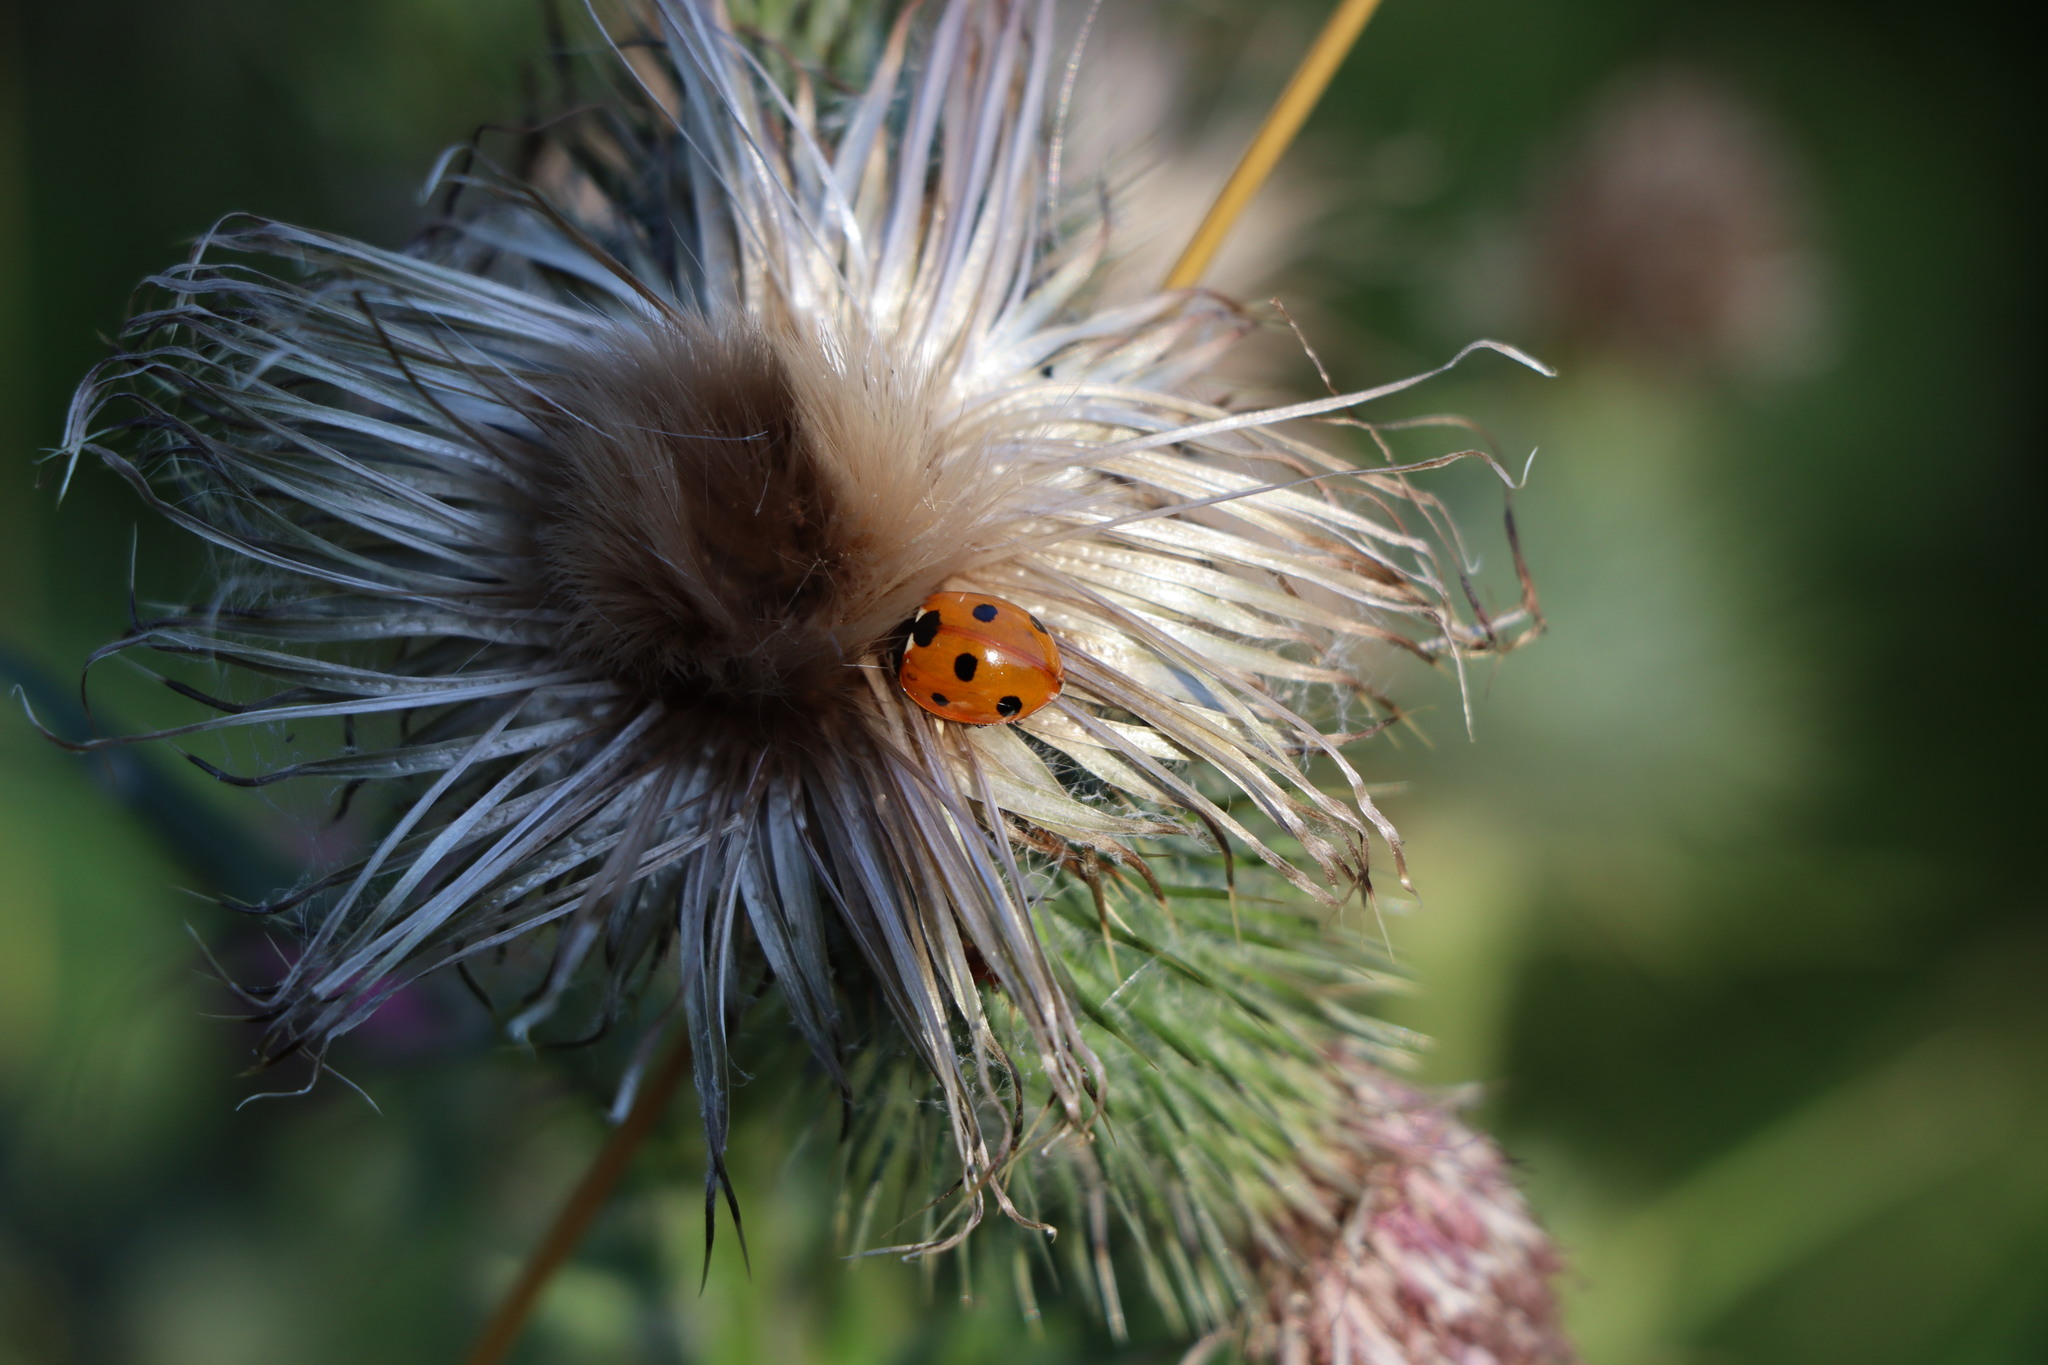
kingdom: Animalia
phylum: Arthropoda
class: Insecta
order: Coleoptera
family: Coccinellidae
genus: Coccinella
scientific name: Coccinella septempunctata
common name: Sevenspotted lady beetle
